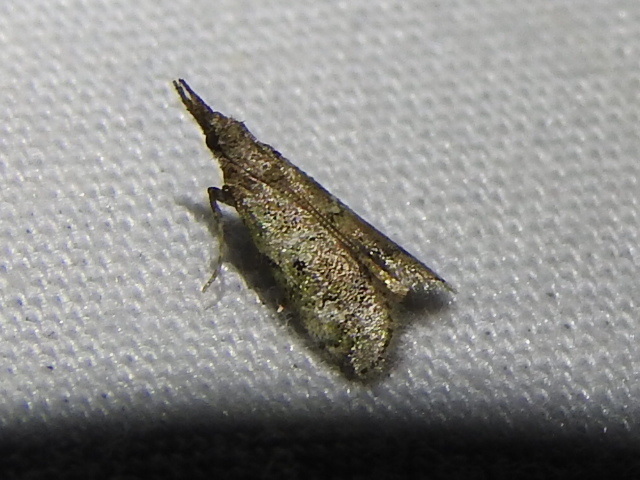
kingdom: Animalia
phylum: Arthropoda
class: Insecta
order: Lepidoptera
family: Pyralidae
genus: Cacotherapia
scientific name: Cacotherapia flexilinealis
